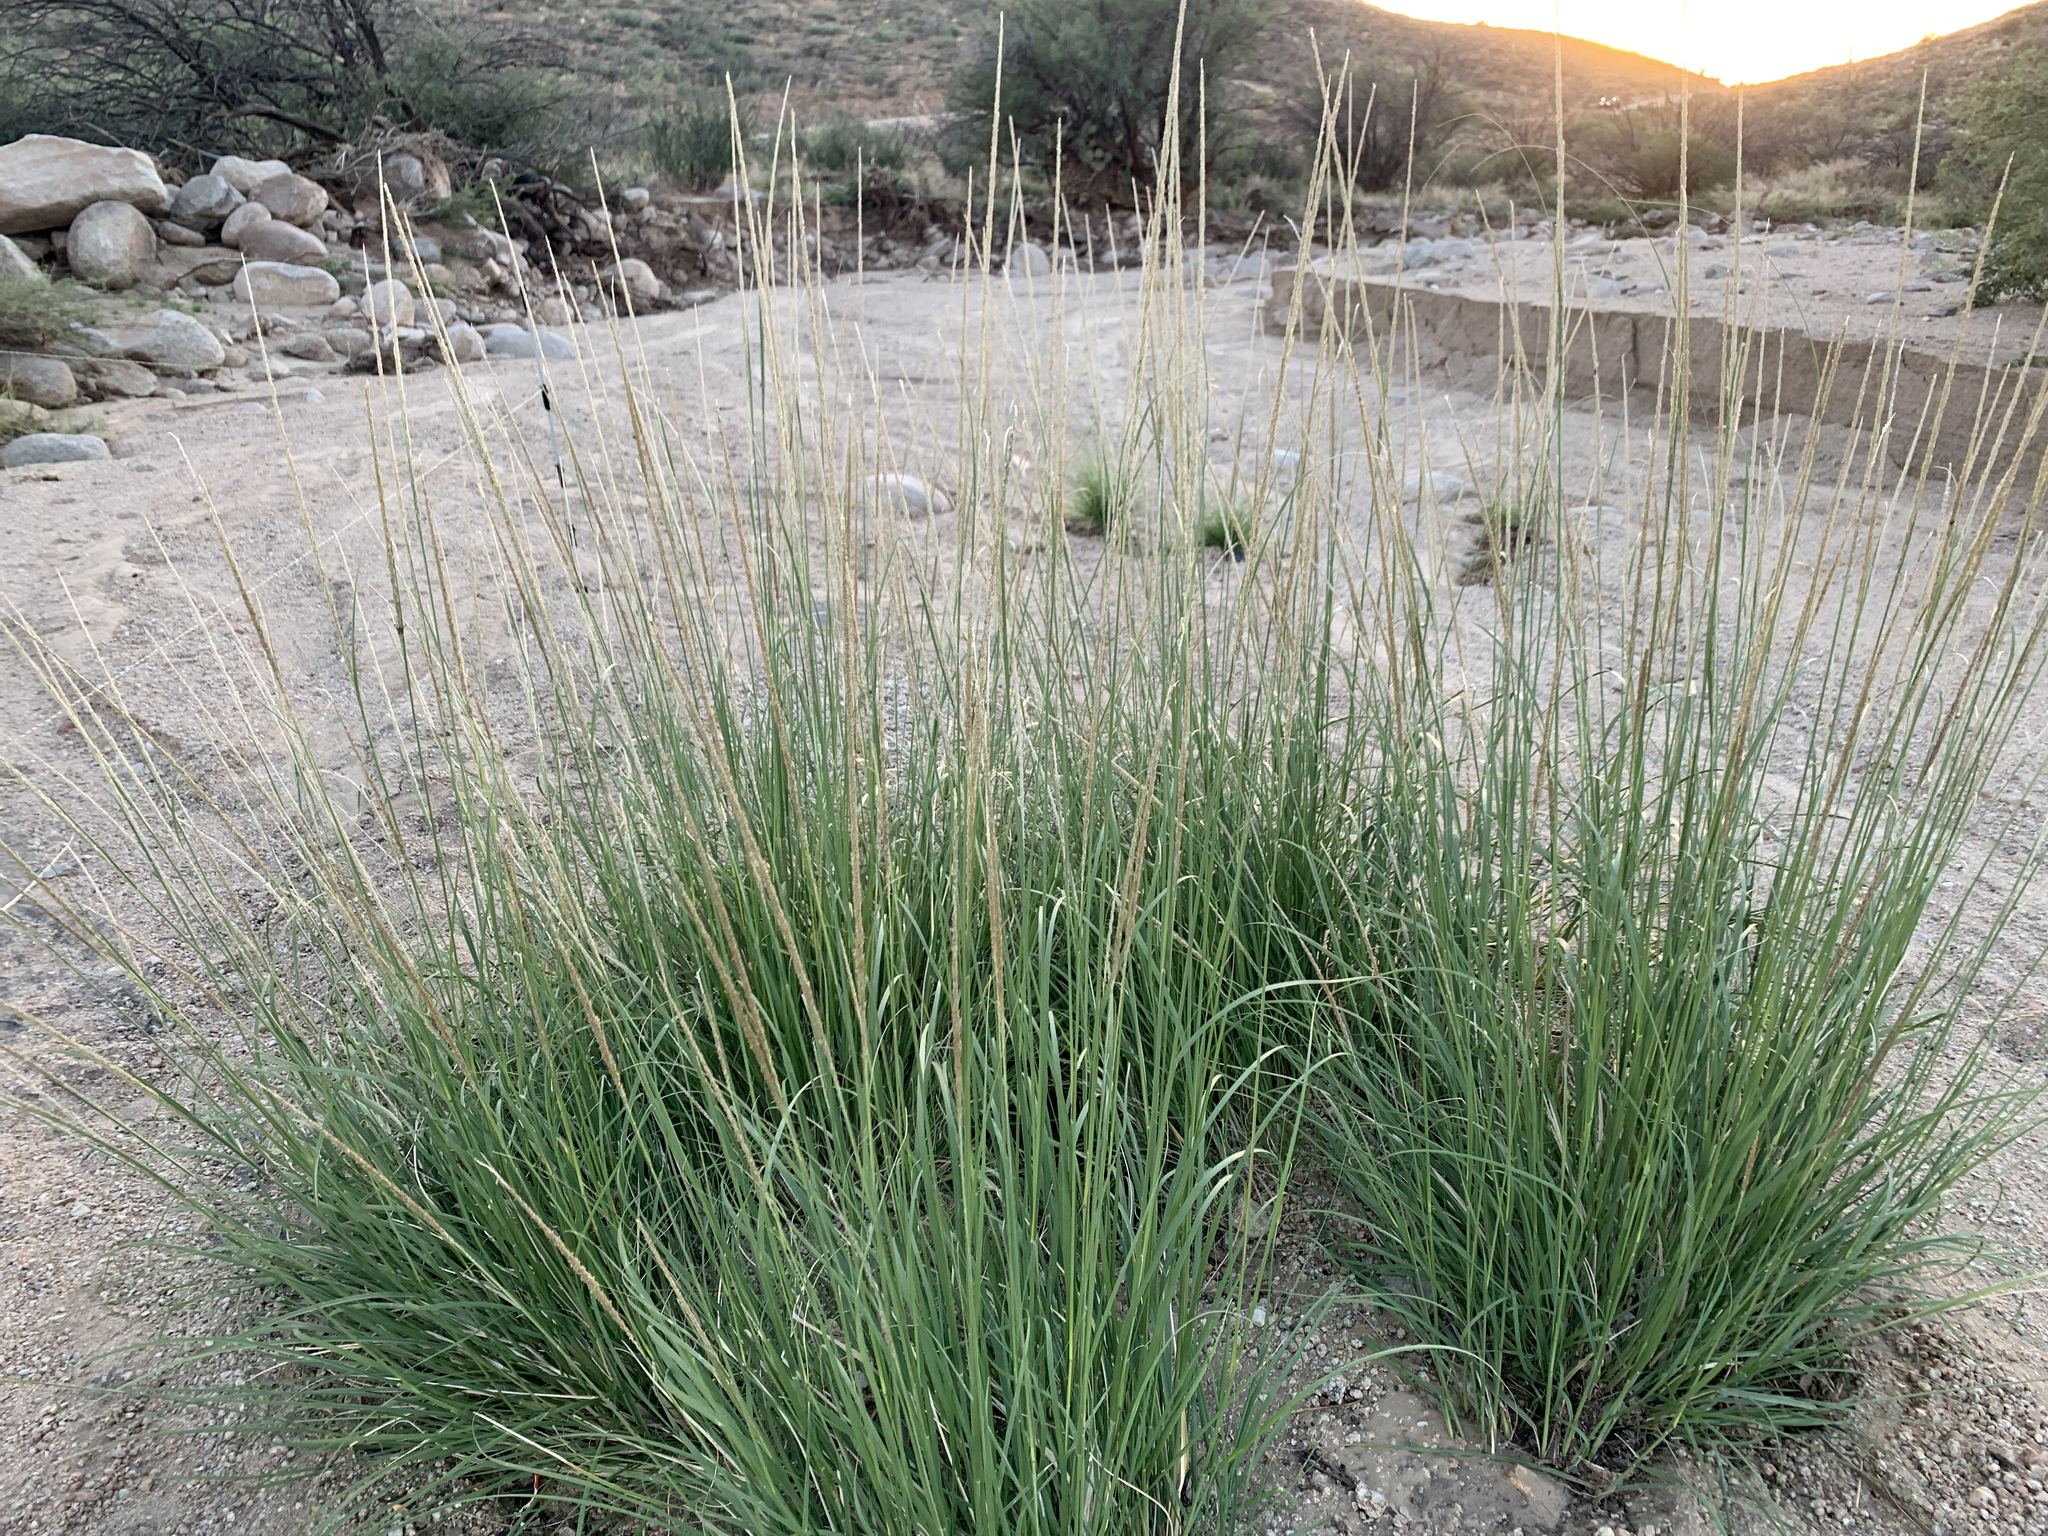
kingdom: Plantae
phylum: Tracheophyta
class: Liliopsida
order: Poales
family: Poaceae
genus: Muhlenbergia
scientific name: Muhlenbergia rigens
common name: Deer grass
